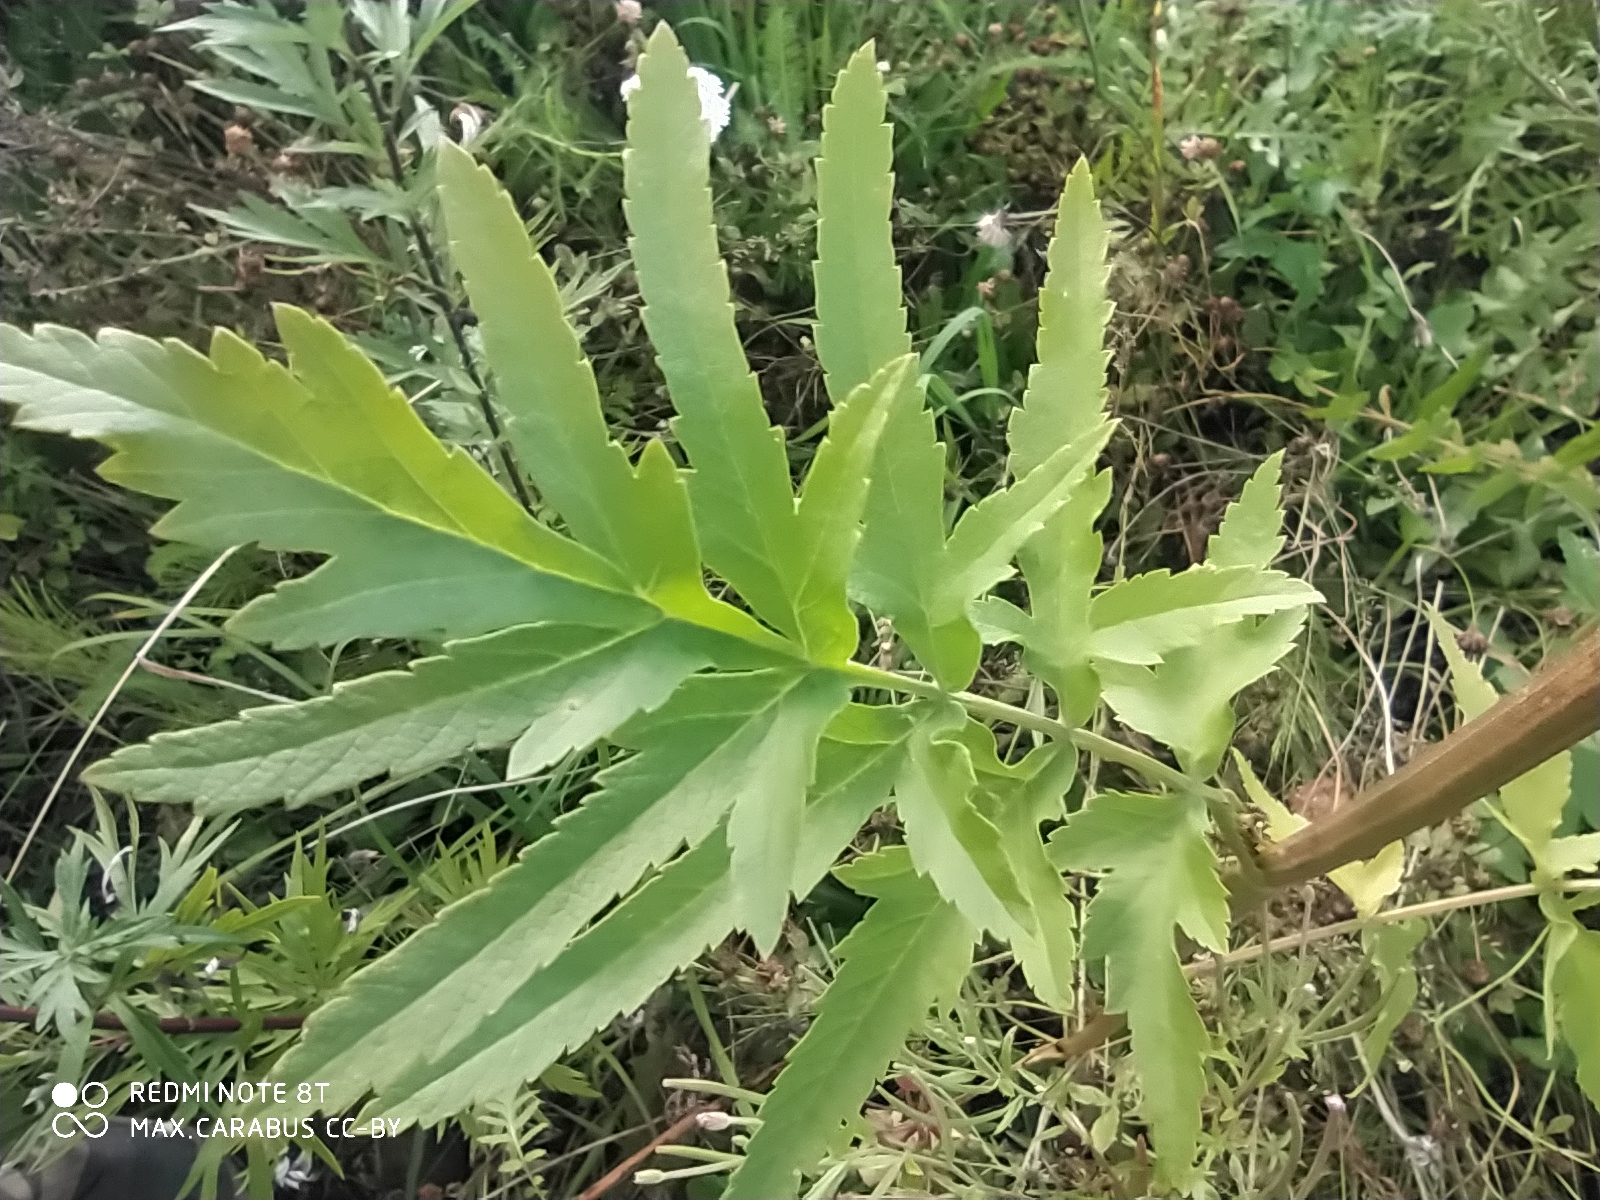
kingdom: Plantae
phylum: Tracheophyta
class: Magnoliopsida
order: Apiales
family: Apiaceae
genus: Pastinaca
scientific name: Pastinaca sativa
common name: Wild parsnip
